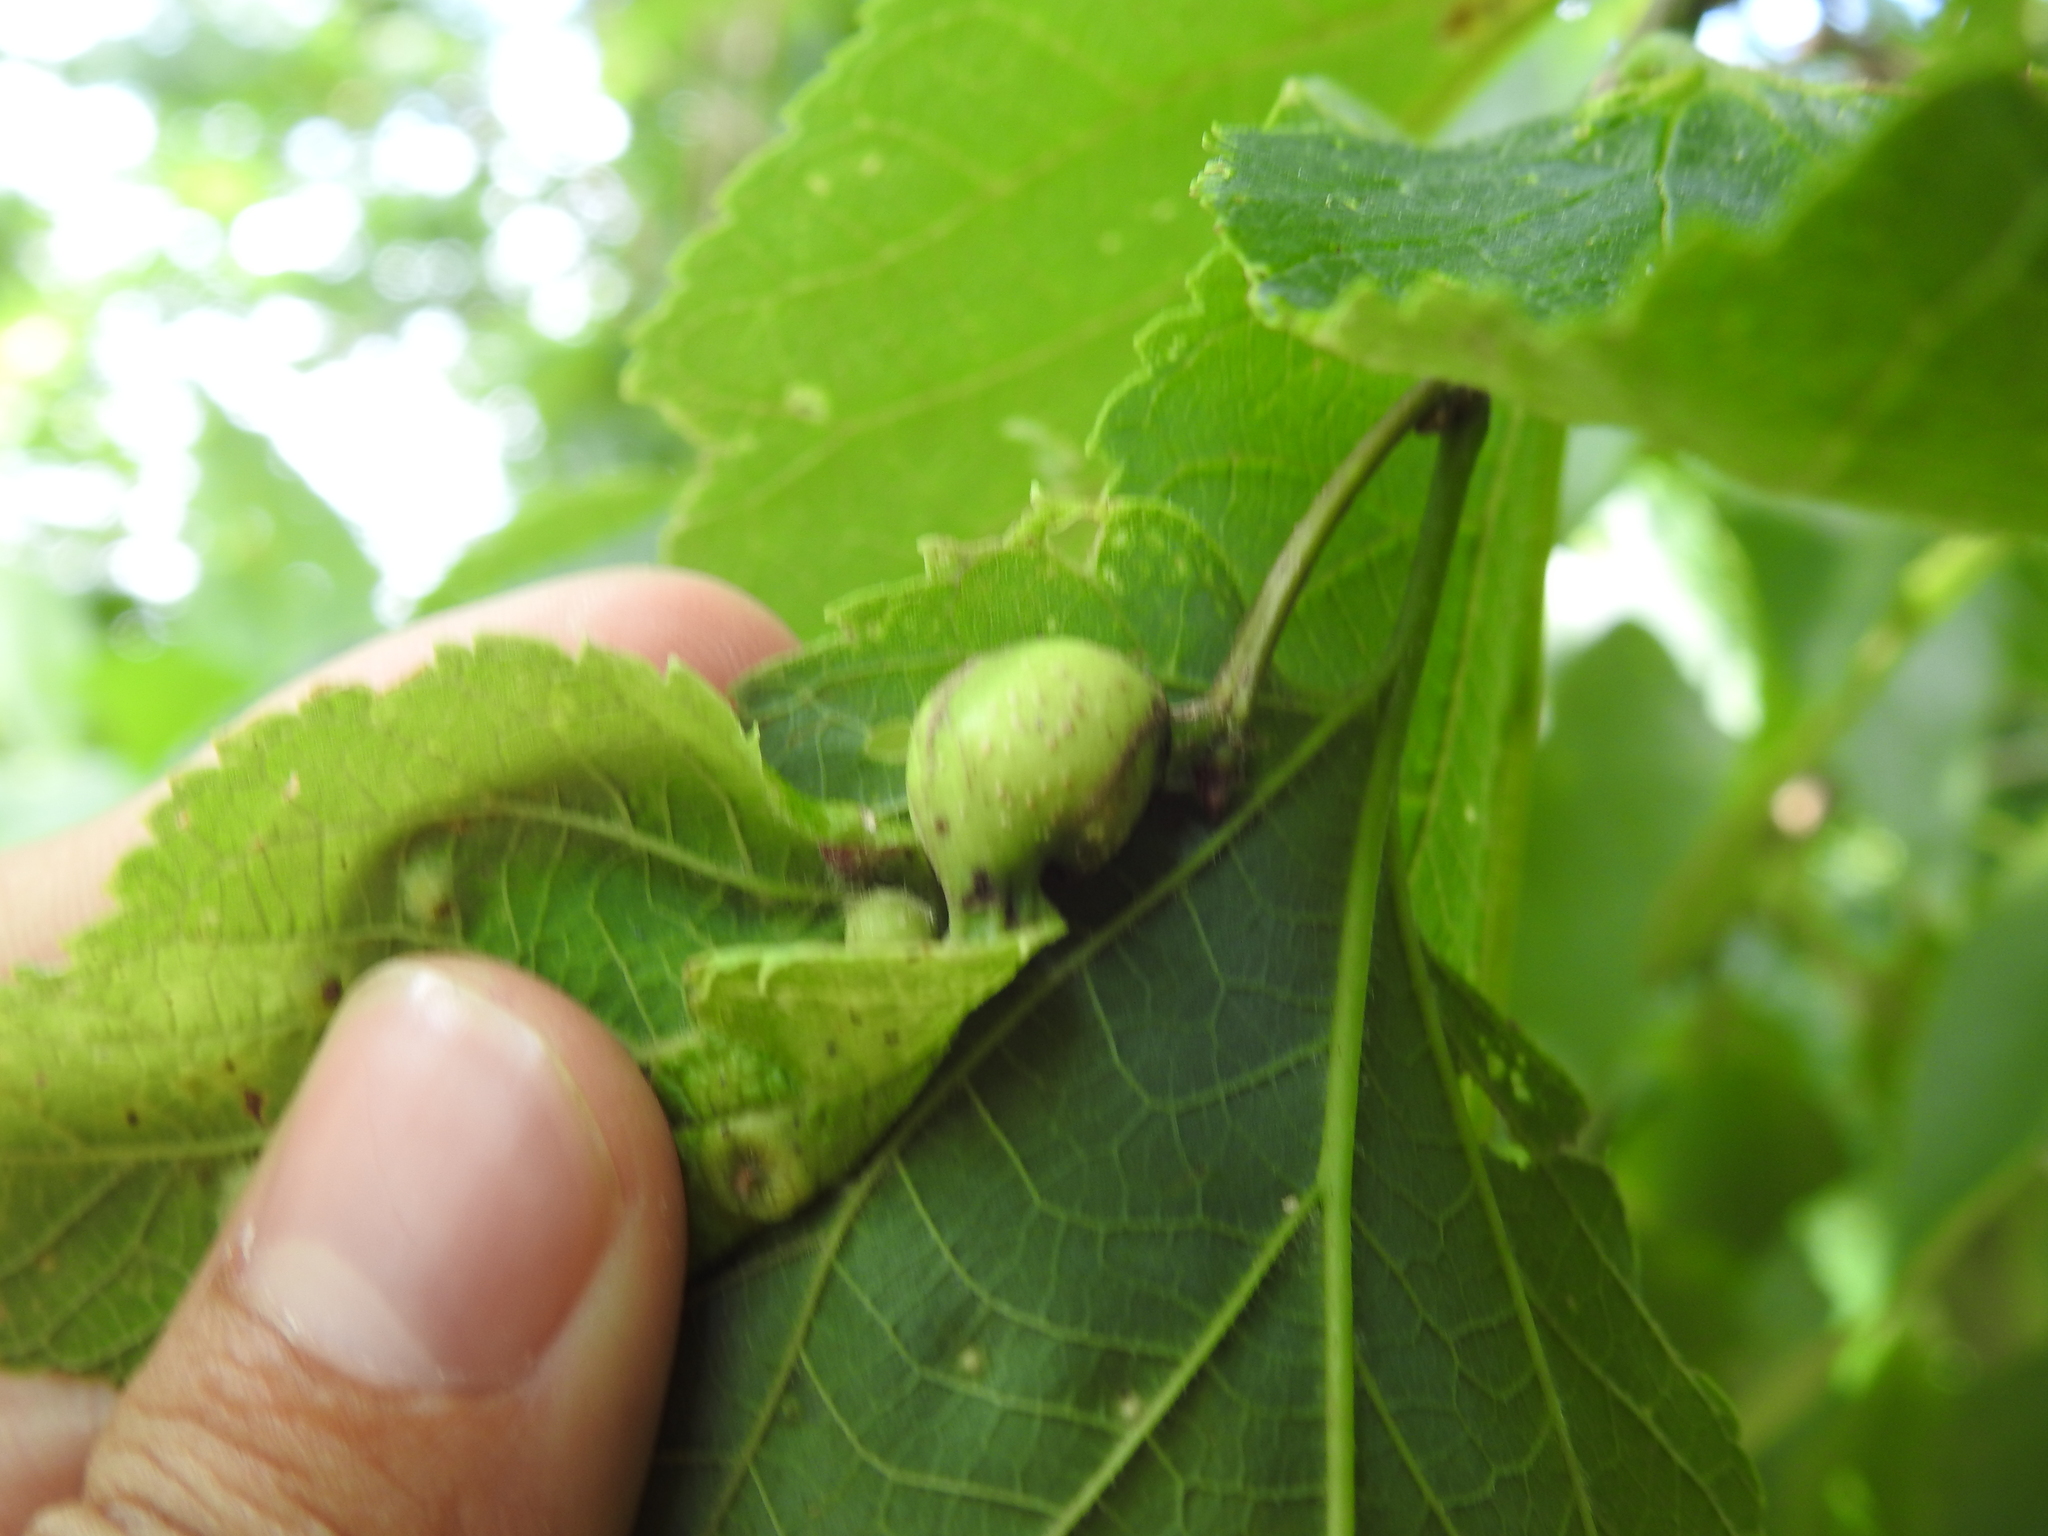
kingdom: Animalia
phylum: Arthropoda
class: Insecta
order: Hemiptera
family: Aphalaridae
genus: Pachypsylla
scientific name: Pachypsylla venusta
